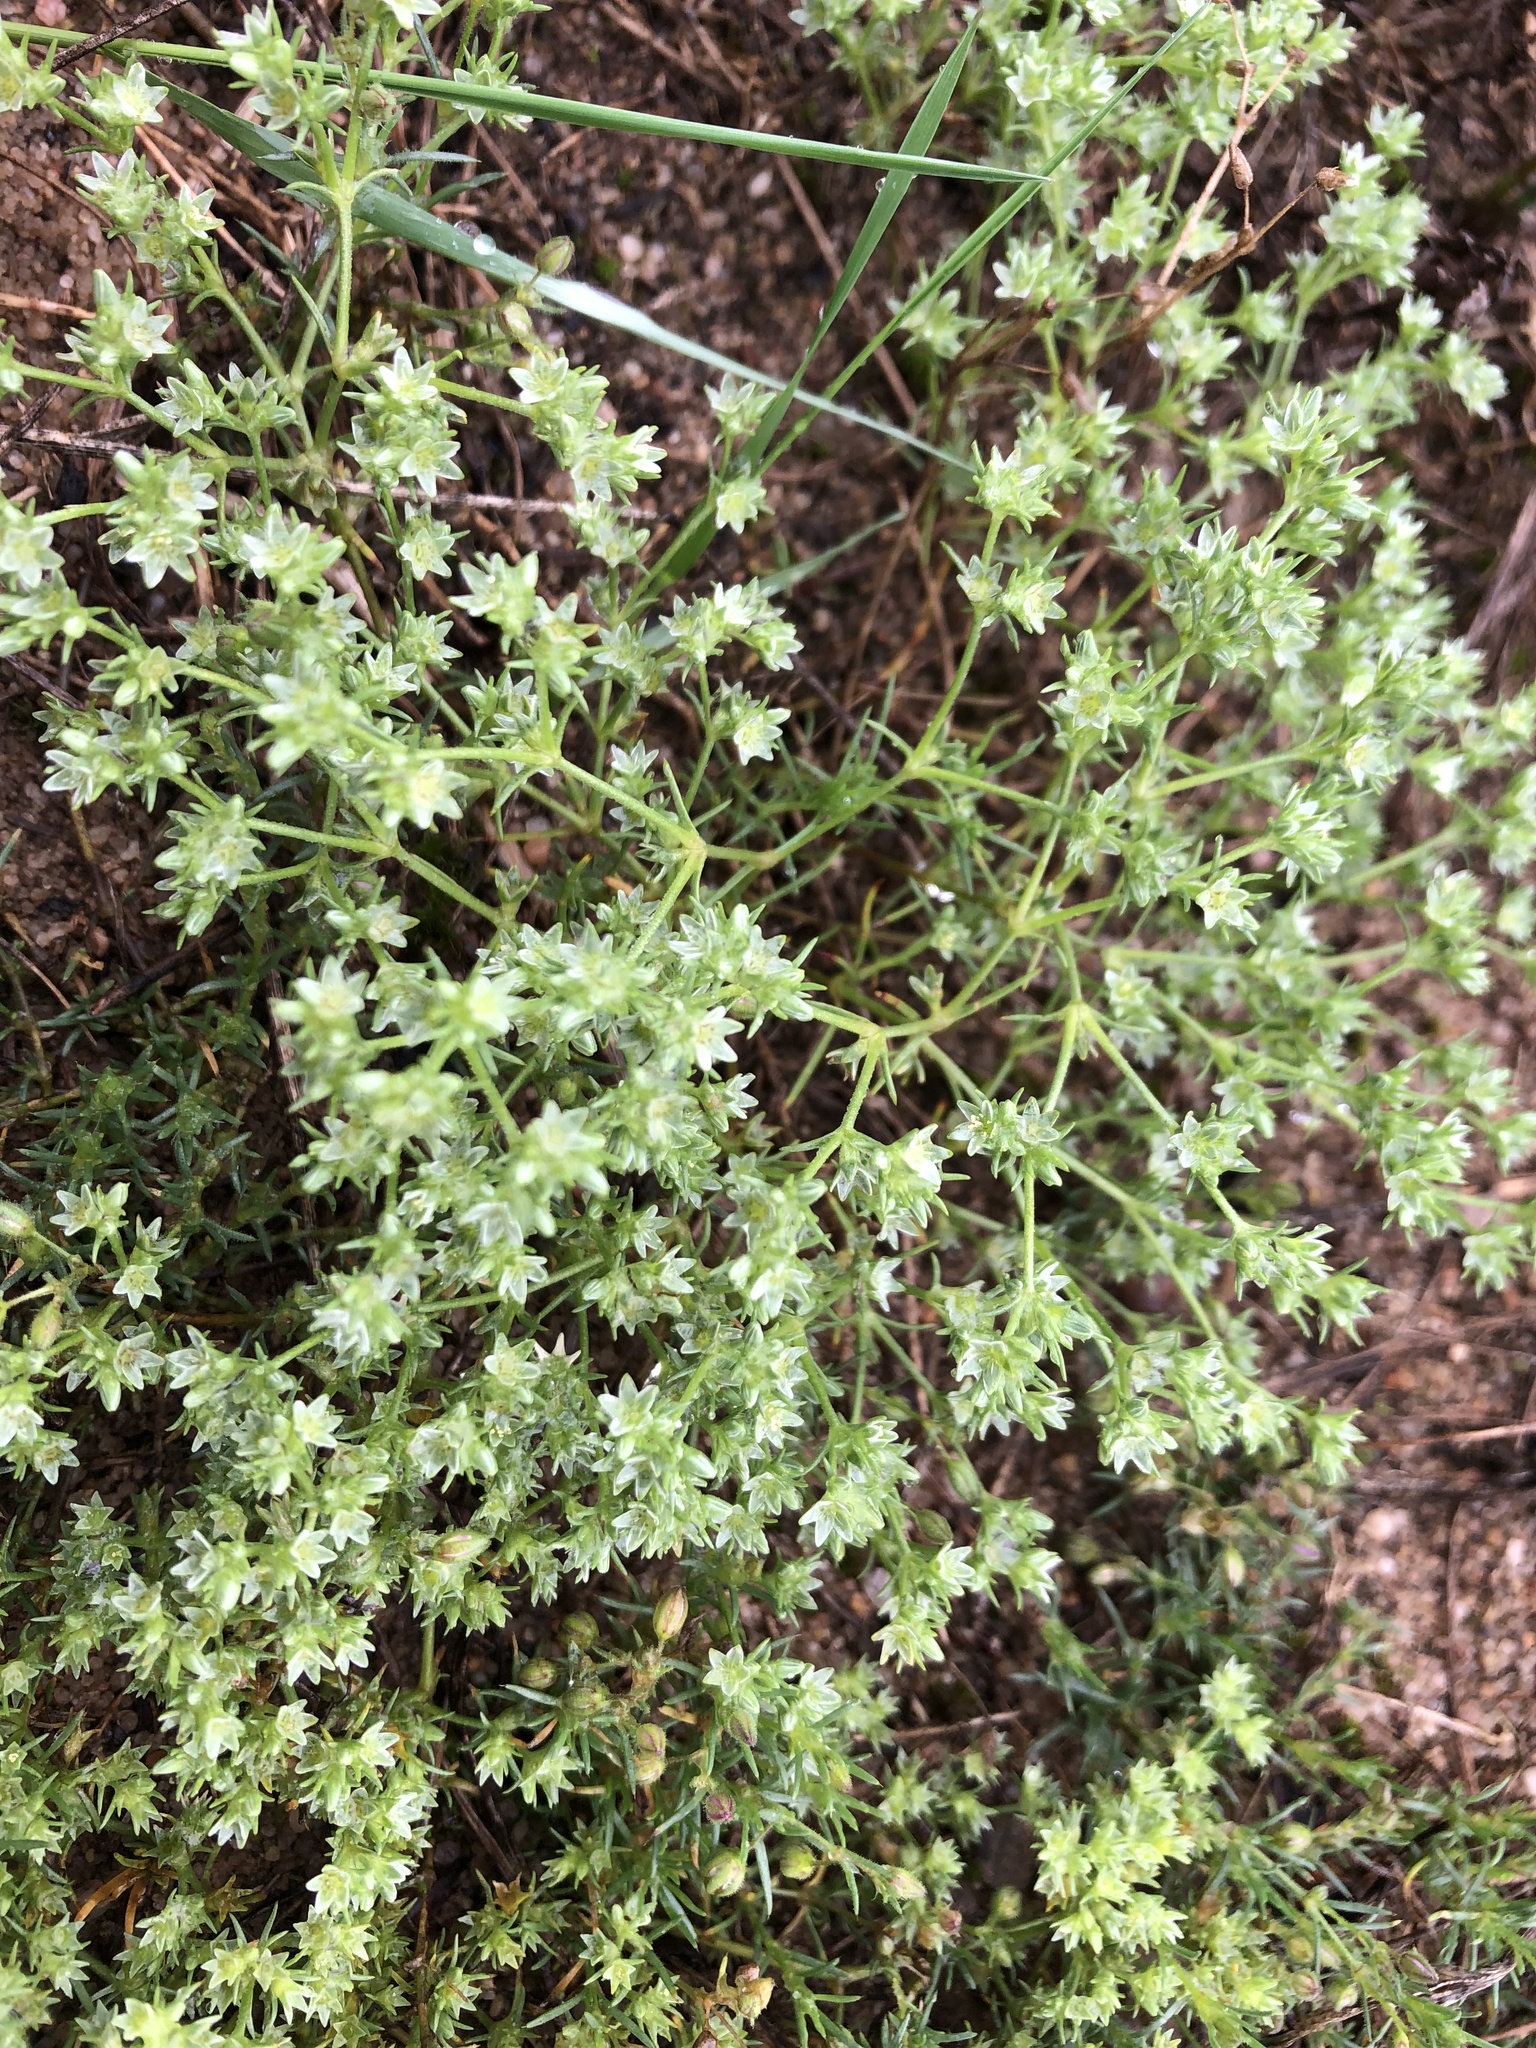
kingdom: Plantae
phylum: Tracheophyta
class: Magnoliopsida
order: Caryophyllales
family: Caryophyllaceae
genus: Scleranthus
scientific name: Scleranthus annuus
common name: Annual knawel
